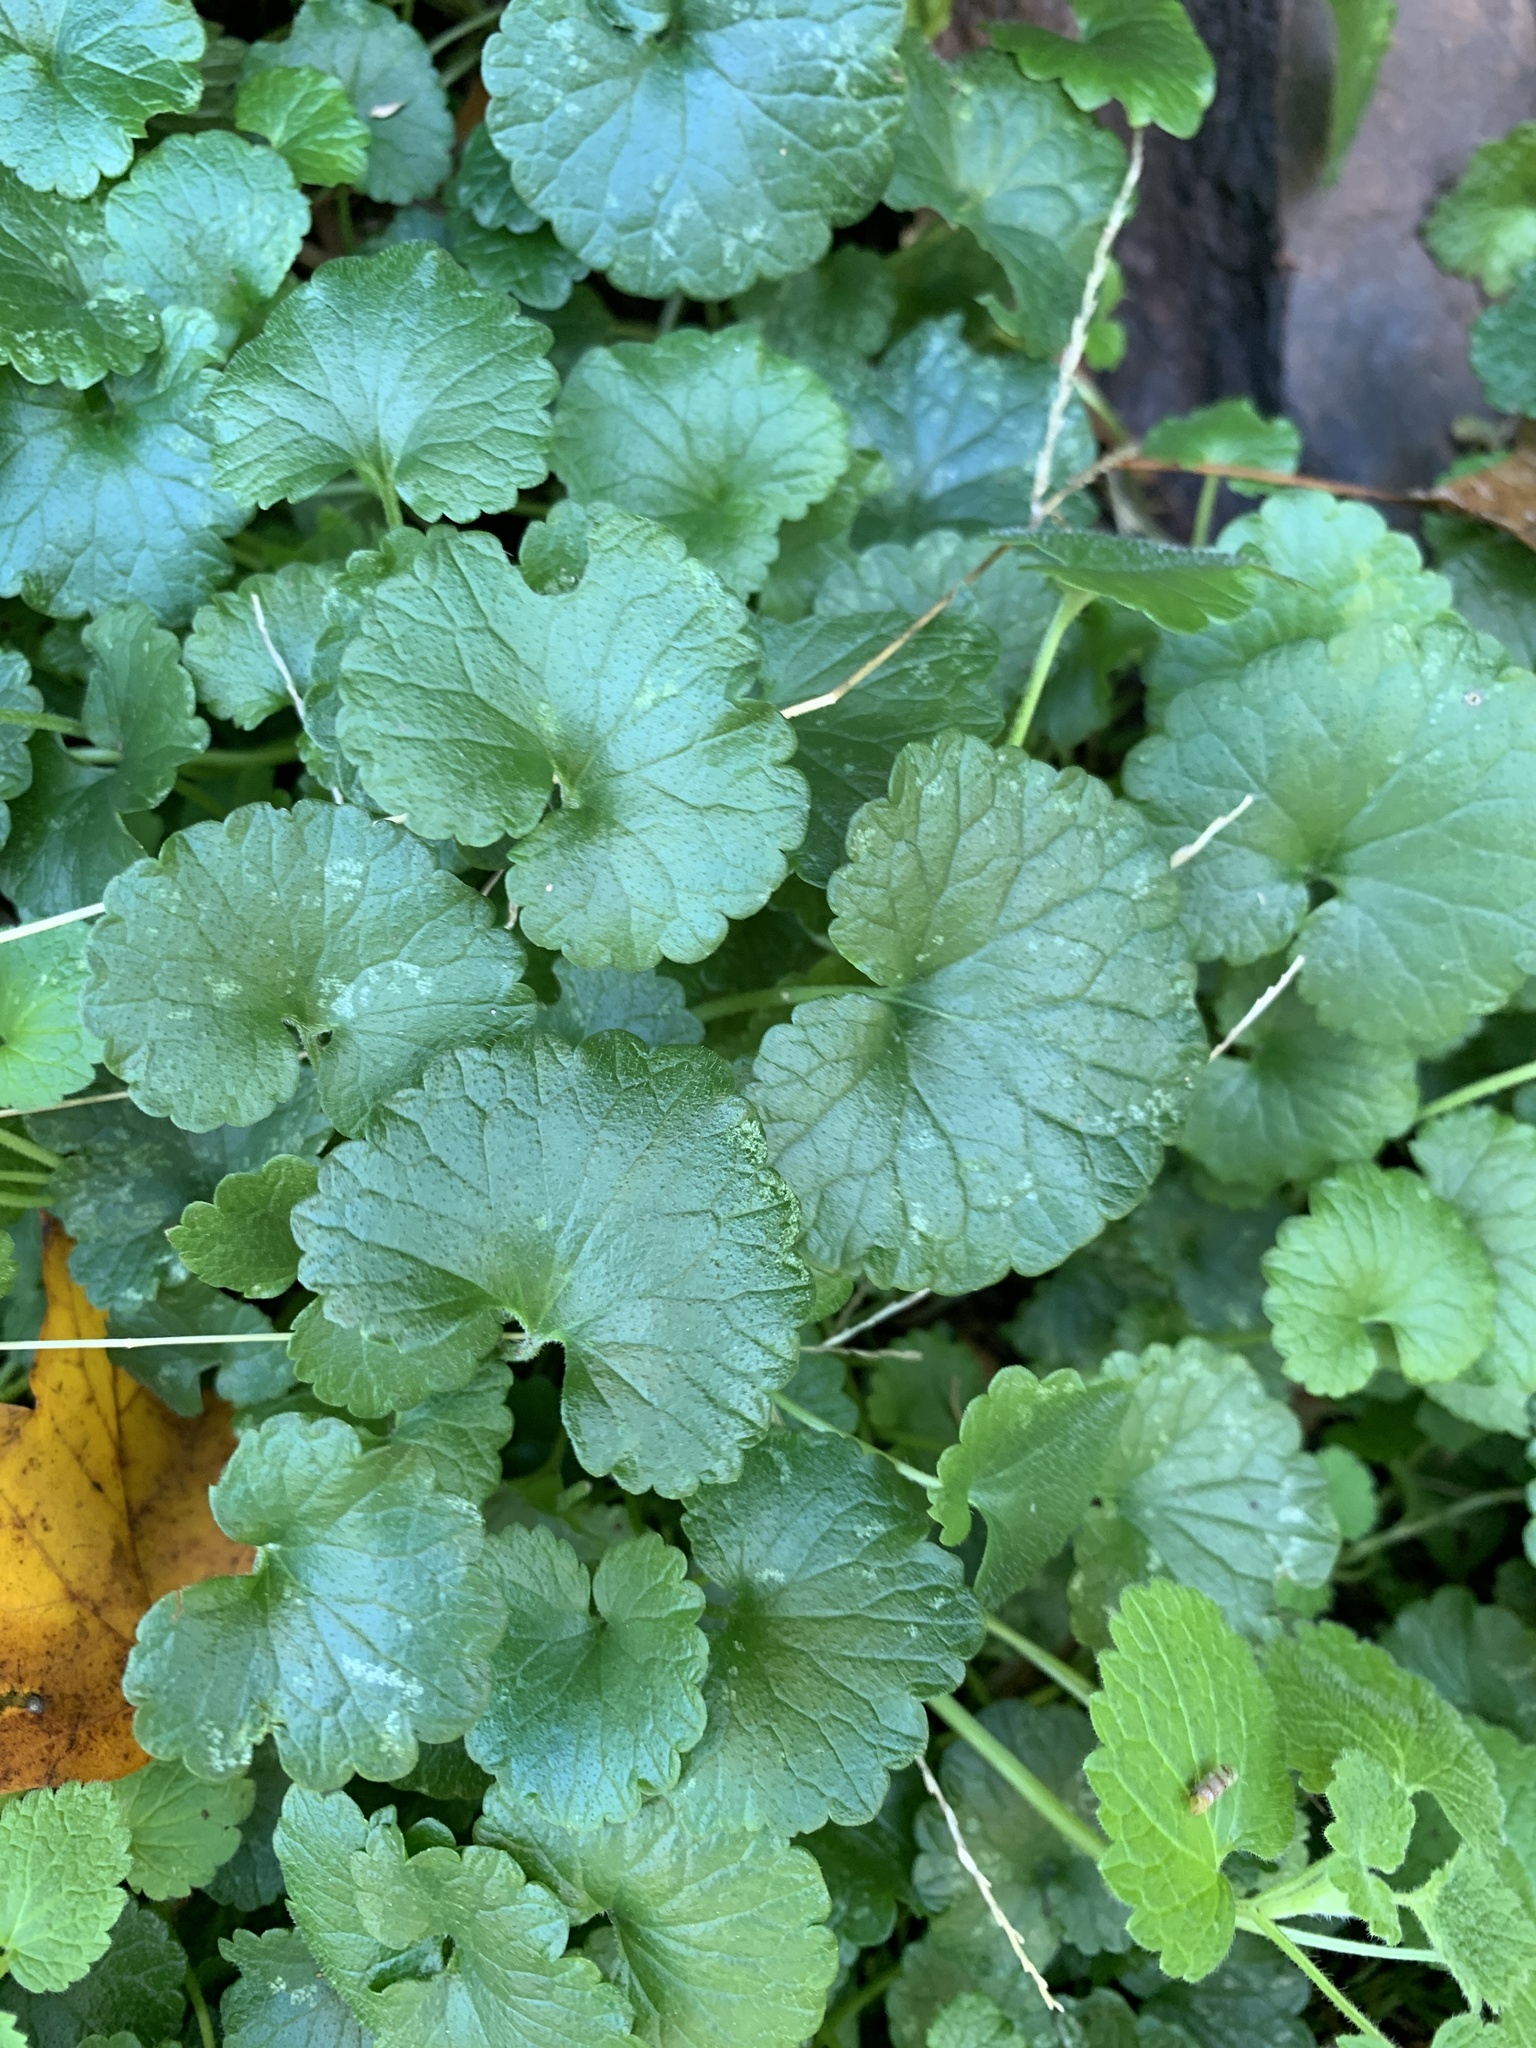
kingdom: Plantae
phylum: Tracheophyta
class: Magnoliopsida
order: Lamiales
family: Lamiaceae
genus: Glechoma
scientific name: Glechoma hederacea
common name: Ground ivy
